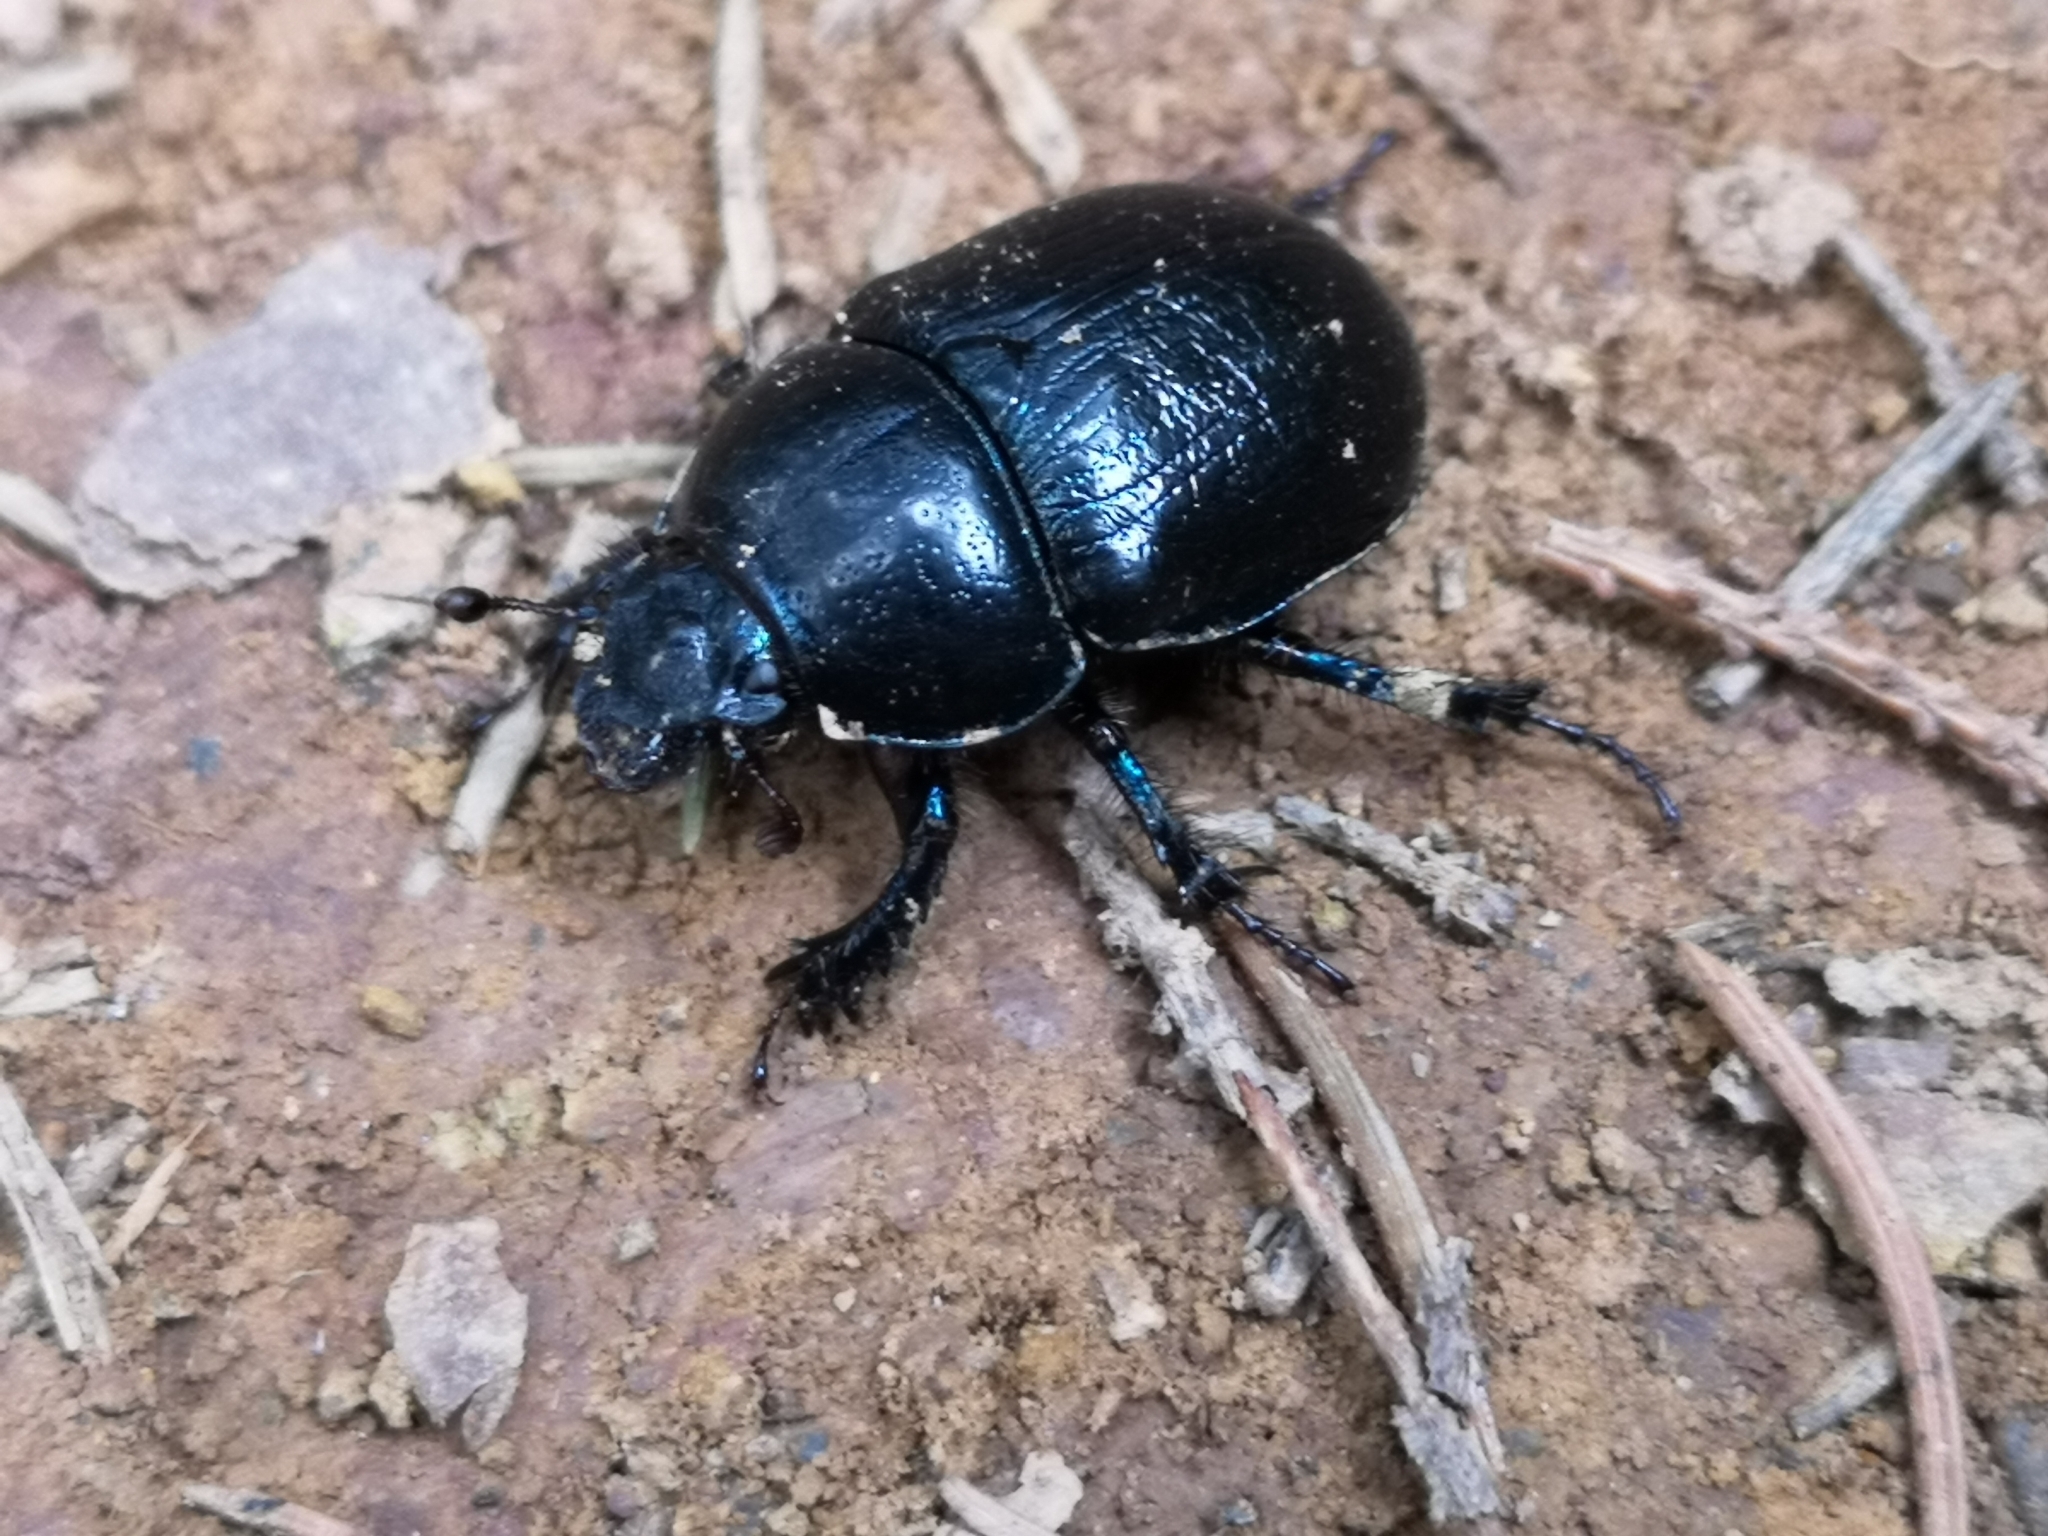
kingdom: Animalia
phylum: Arthropoda
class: Insecta
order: Coleoptera
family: Geotrupidae
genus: Anoplotrupes
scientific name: Anoplotrupes stercorosus
